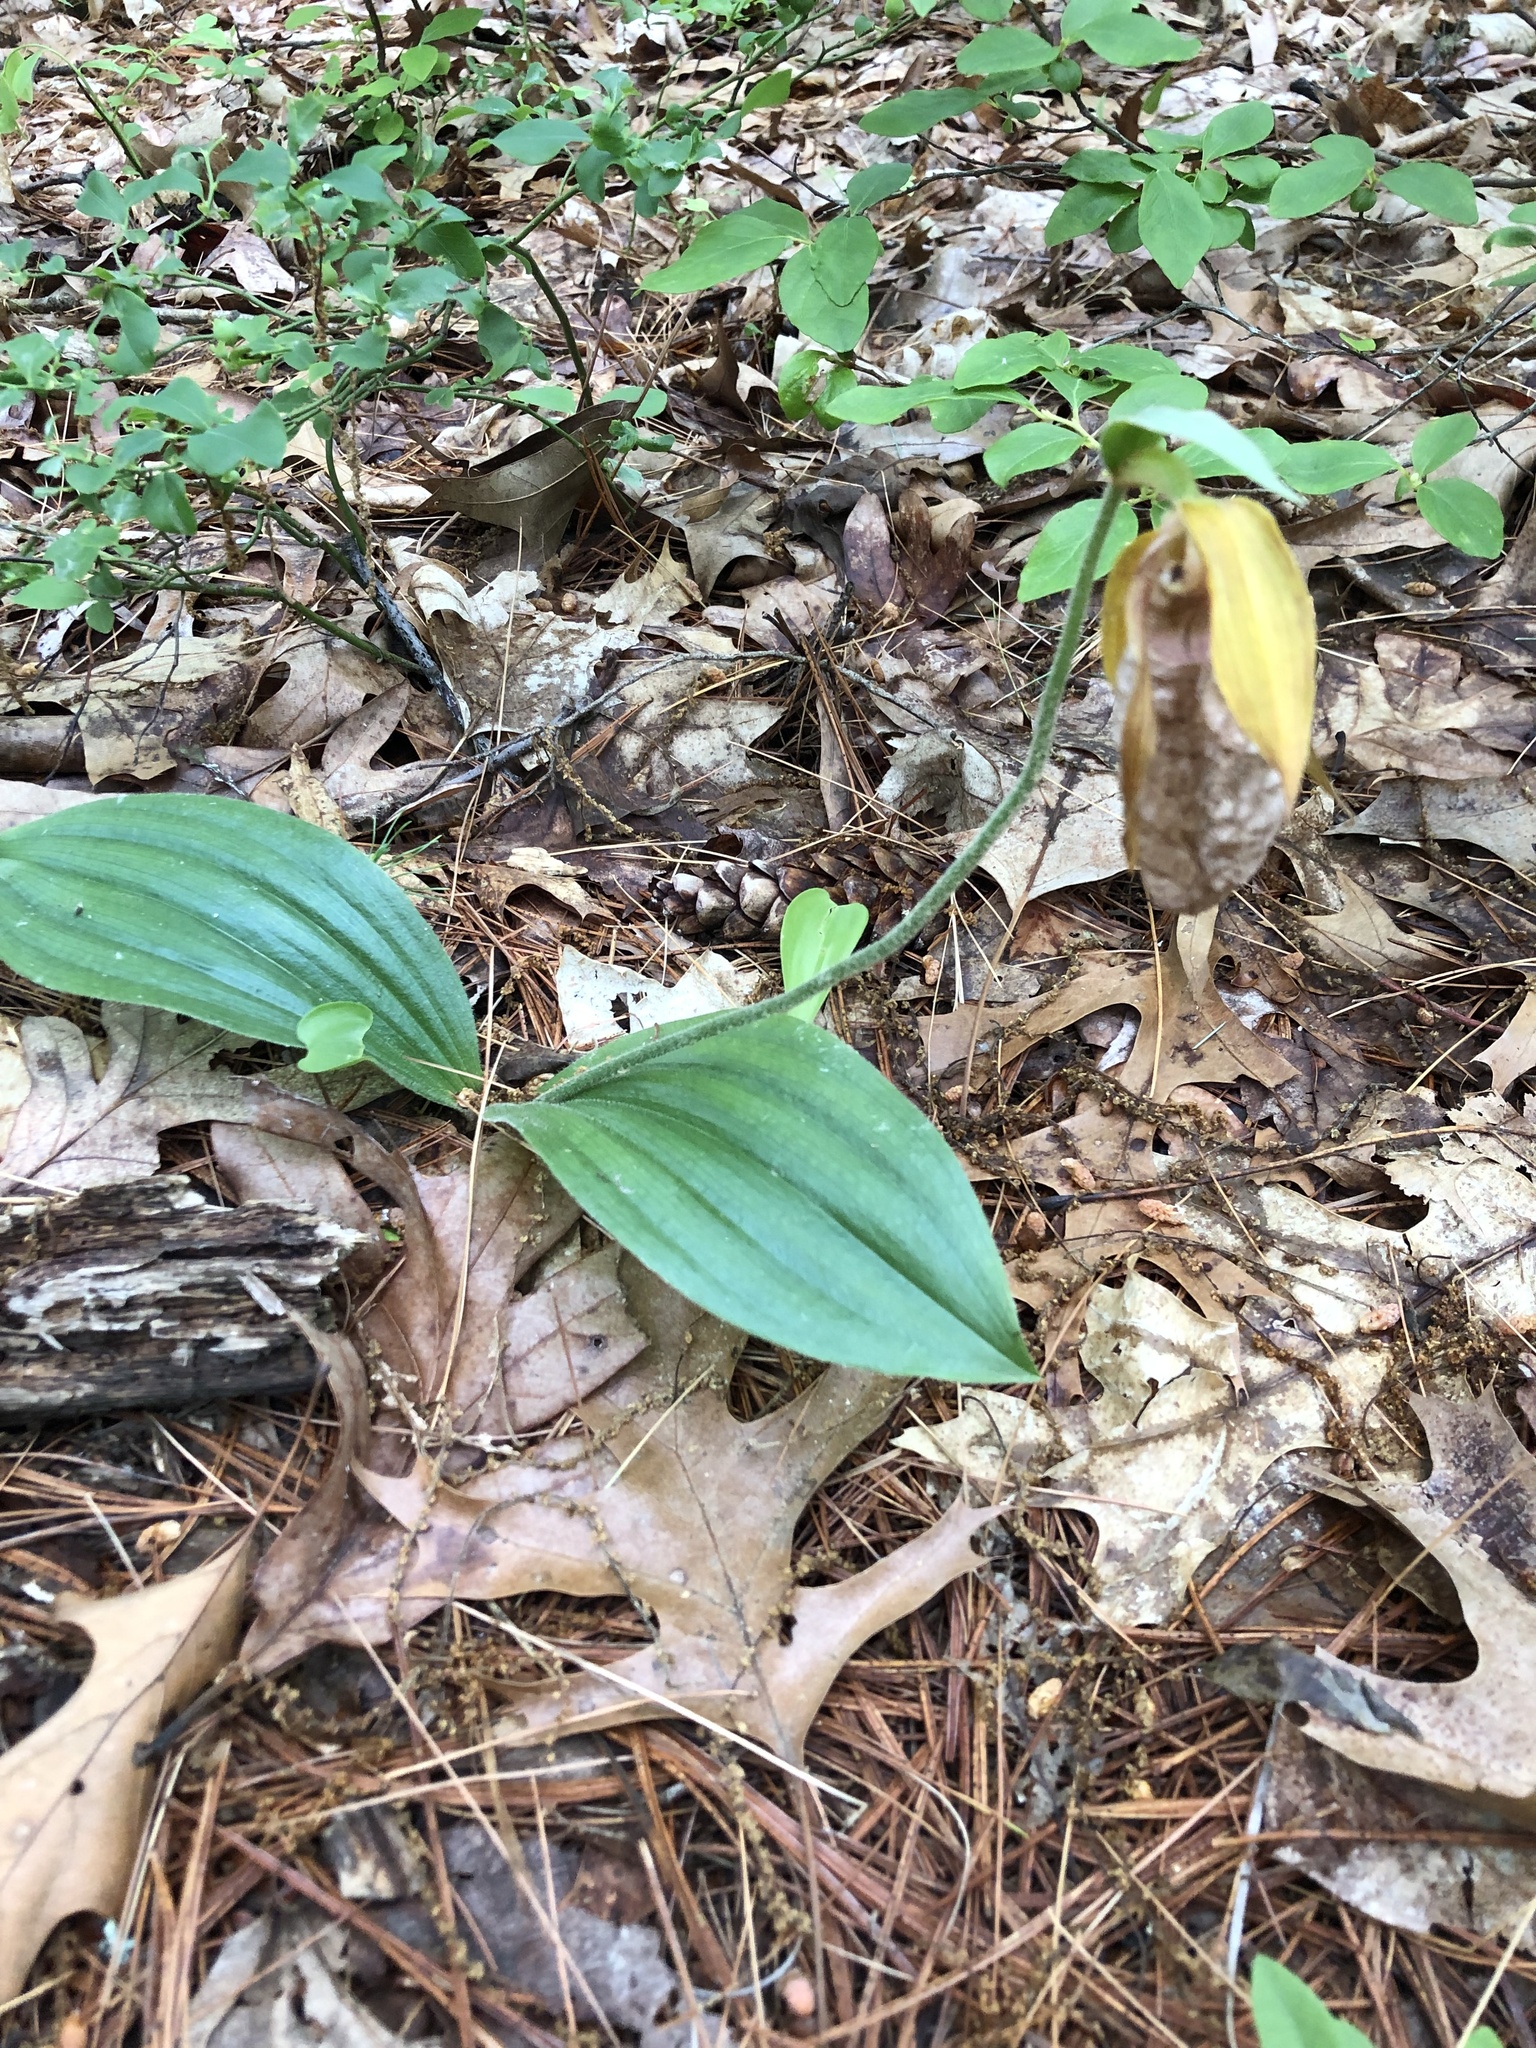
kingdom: Plantae
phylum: Tracheophyta
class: Liliopsida
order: Asparagales
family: Orchidaceae
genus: Cypripedium
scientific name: Cypripedium acaule
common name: Pink lady's-slipper
